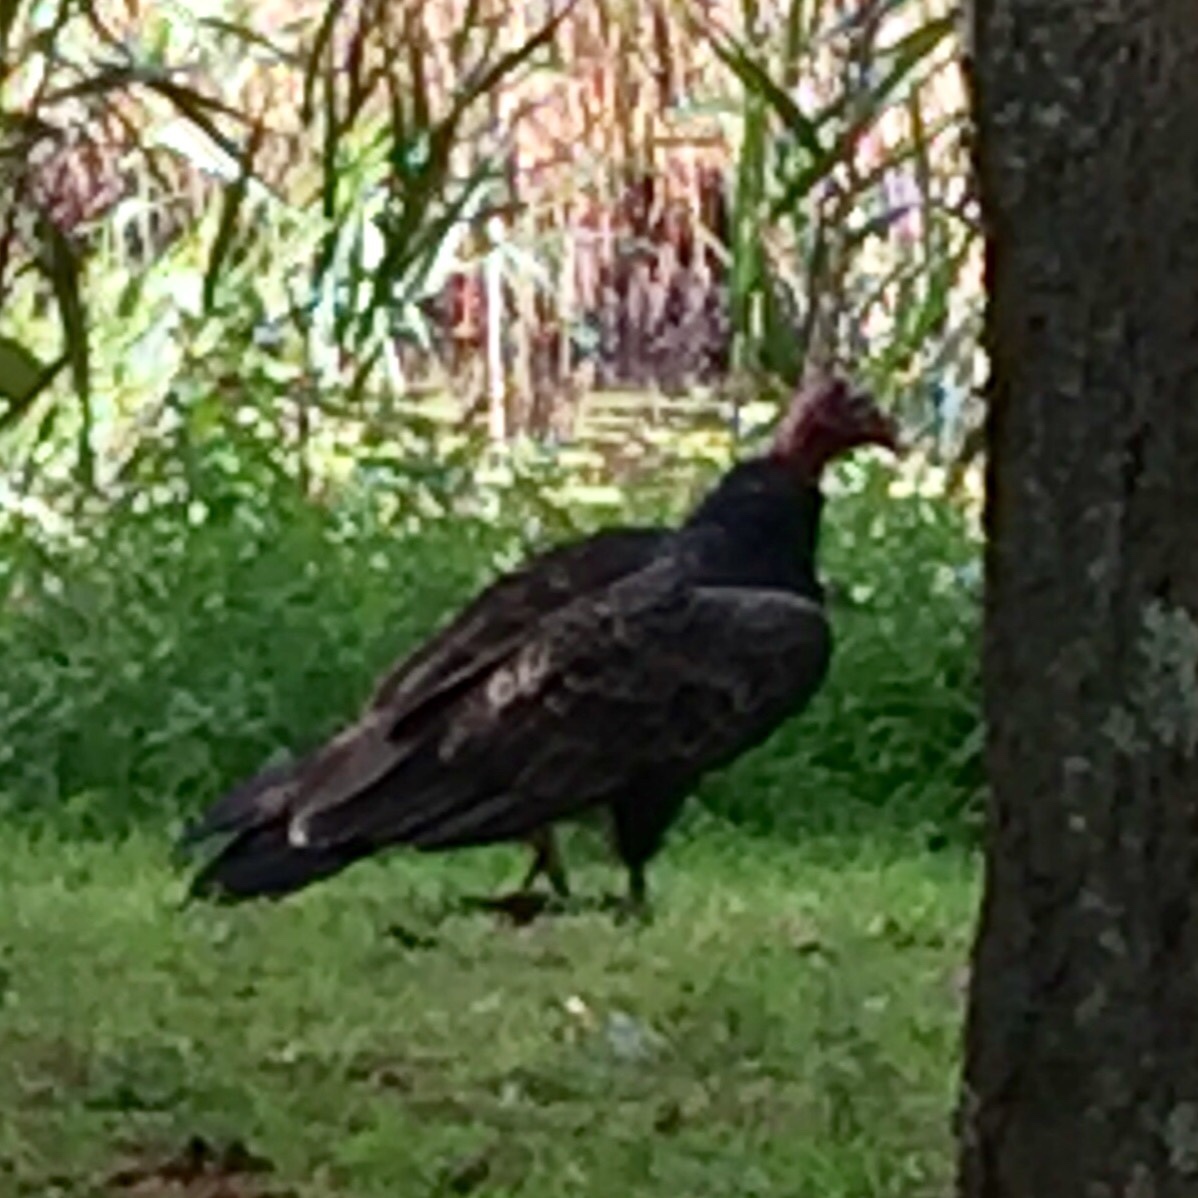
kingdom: Animalia
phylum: Chordata
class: Aves
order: Accipitriformes
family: Cathartidae
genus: Cathartes
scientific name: Cathartes aura
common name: Turkey vulture
